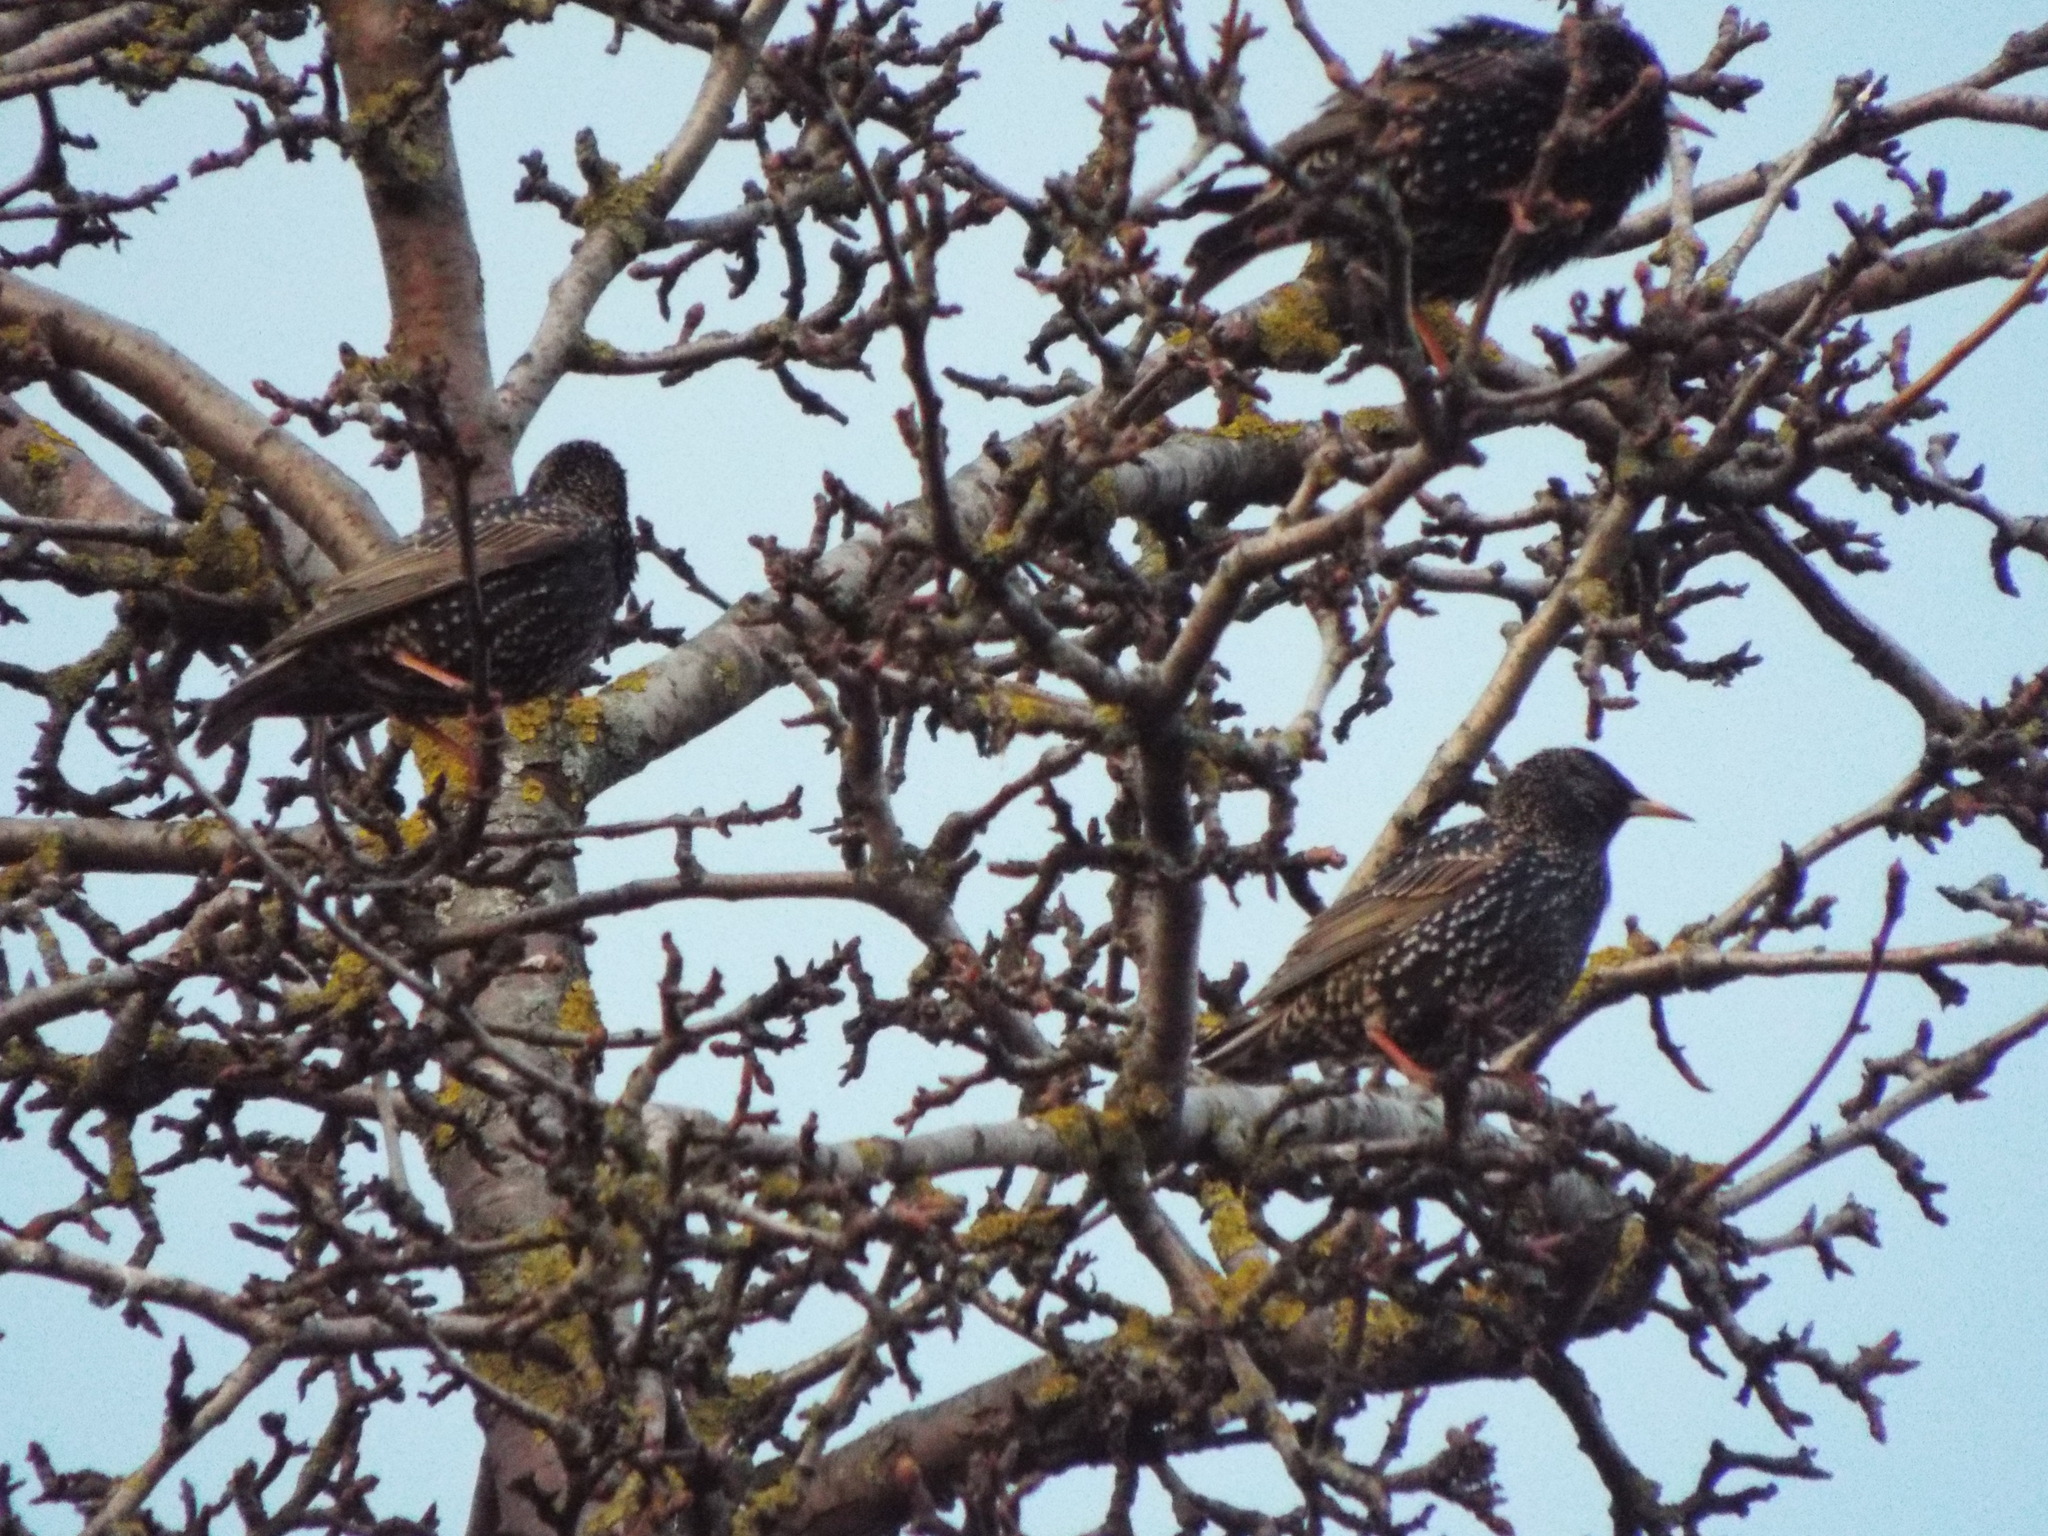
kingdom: Animalia
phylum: Chordata
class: Aves
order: Passeriformes
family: Sturnidae
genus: Sturnus
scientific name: Sturnus vulgaris
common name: Common starling
